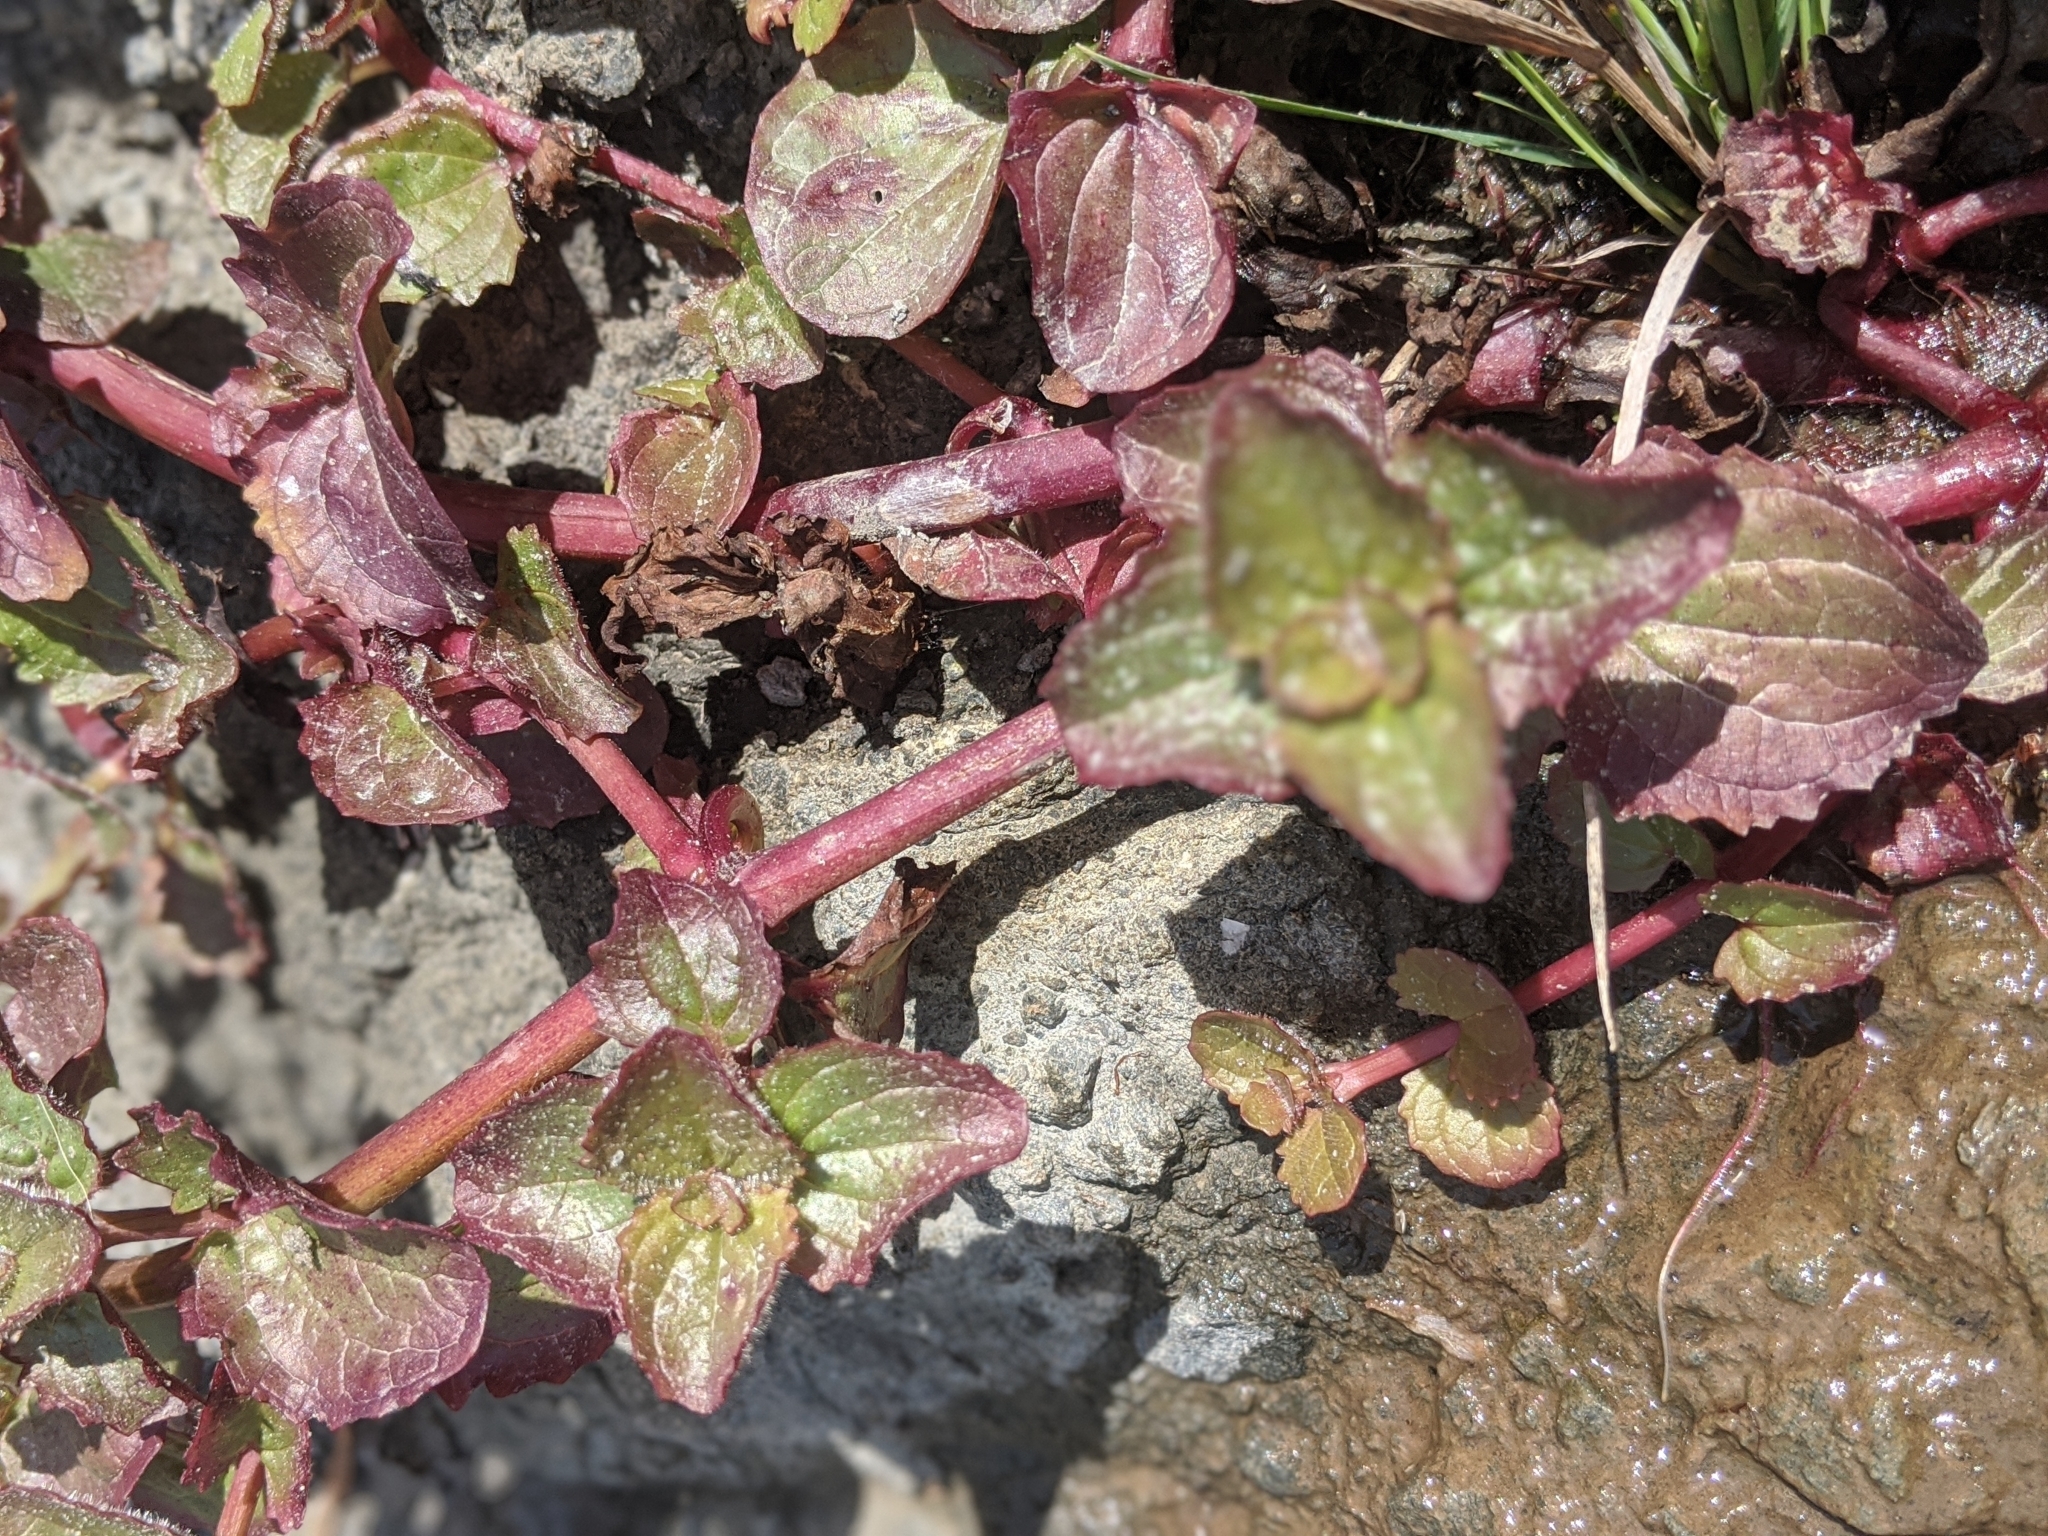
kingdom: Plantae
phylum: Tracheophyta
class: Magnoliopsida
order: Lamiales
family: Phrymaceae
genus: Erythranthe
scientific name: Erythranthe grandis
